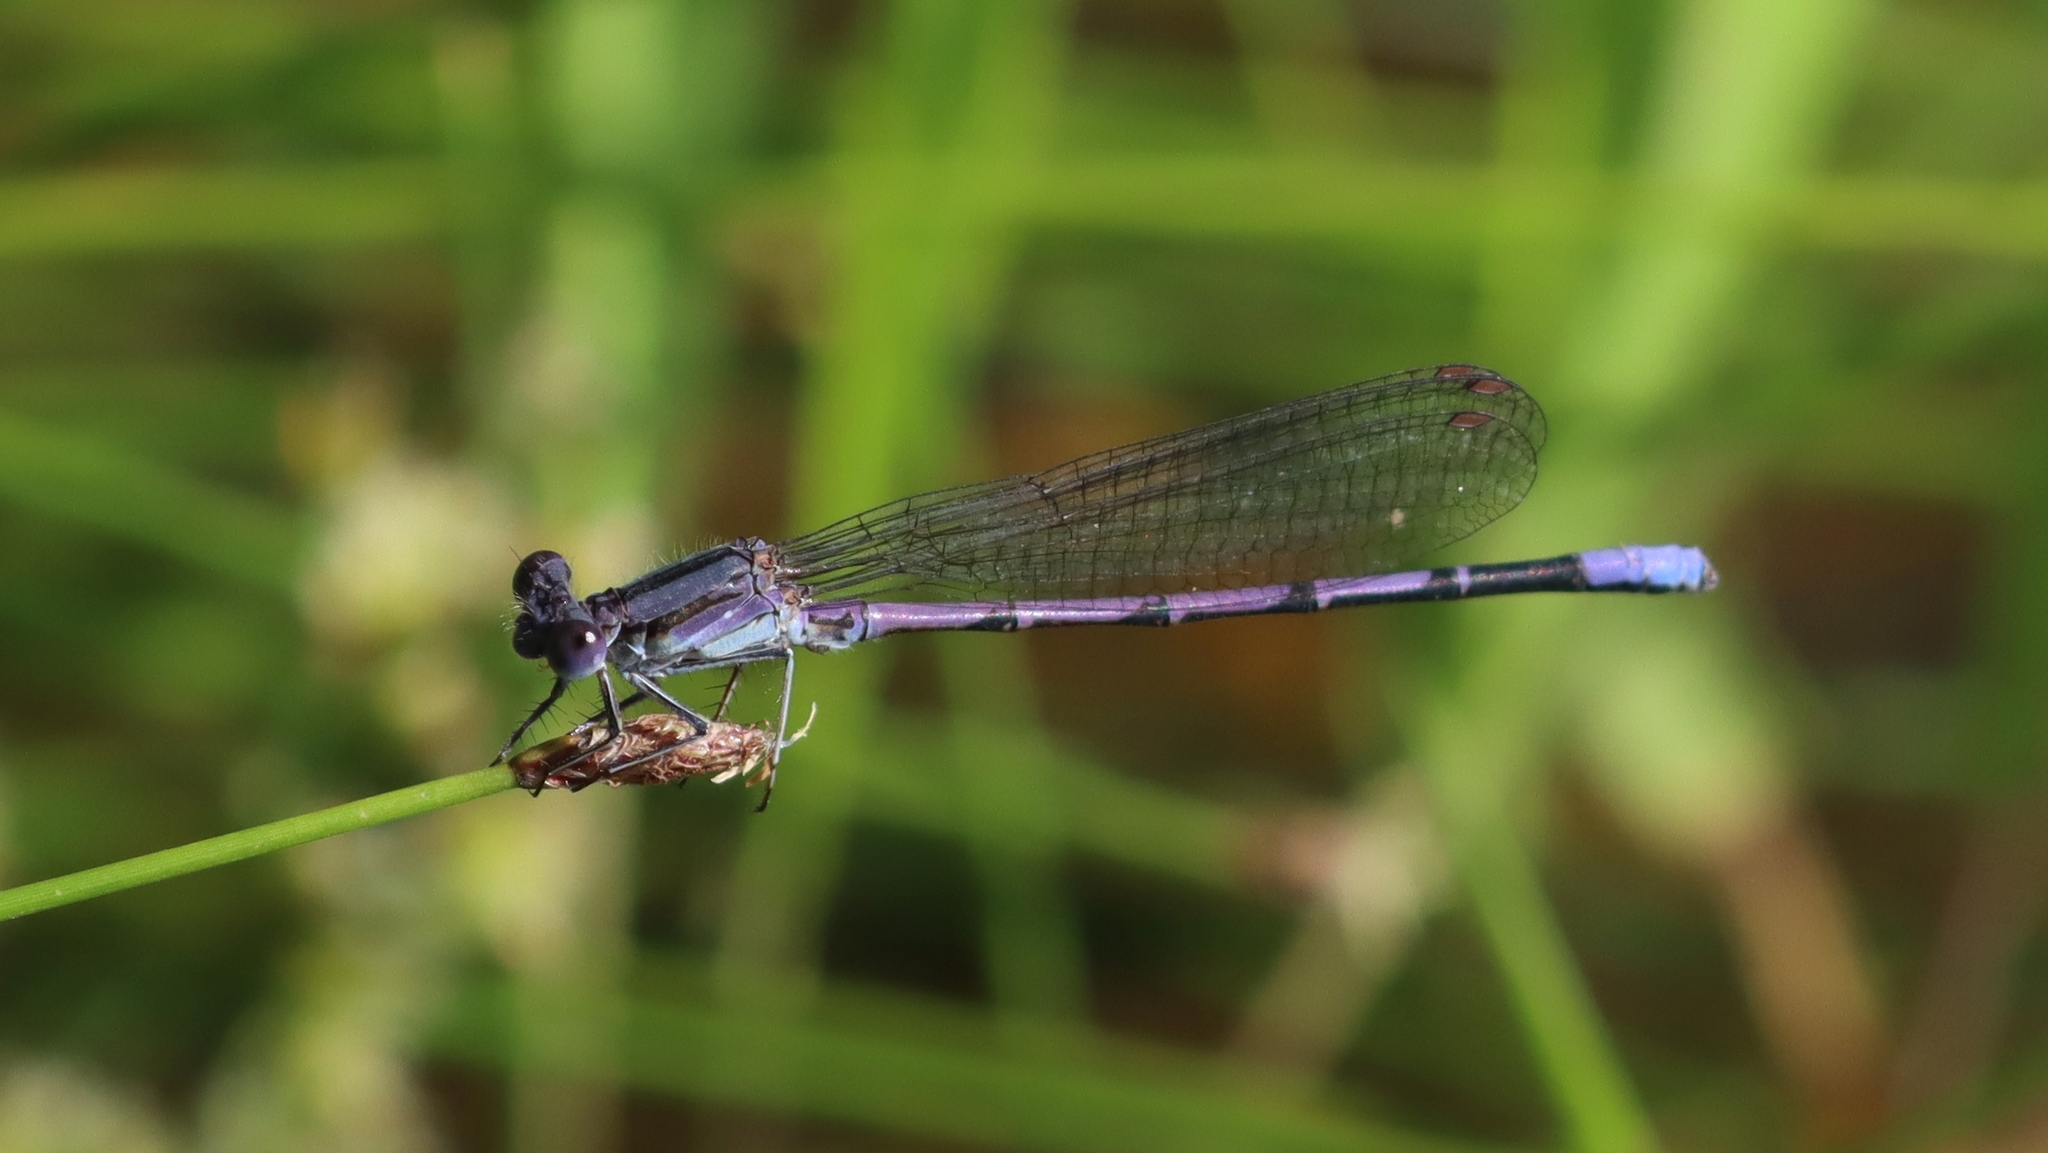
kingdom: Animalia
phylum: Arthropoda
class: Insecta
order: Odonata
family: Coenagrionidae
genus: Argia
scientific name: Argia fumipennis
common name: Variable dancer
